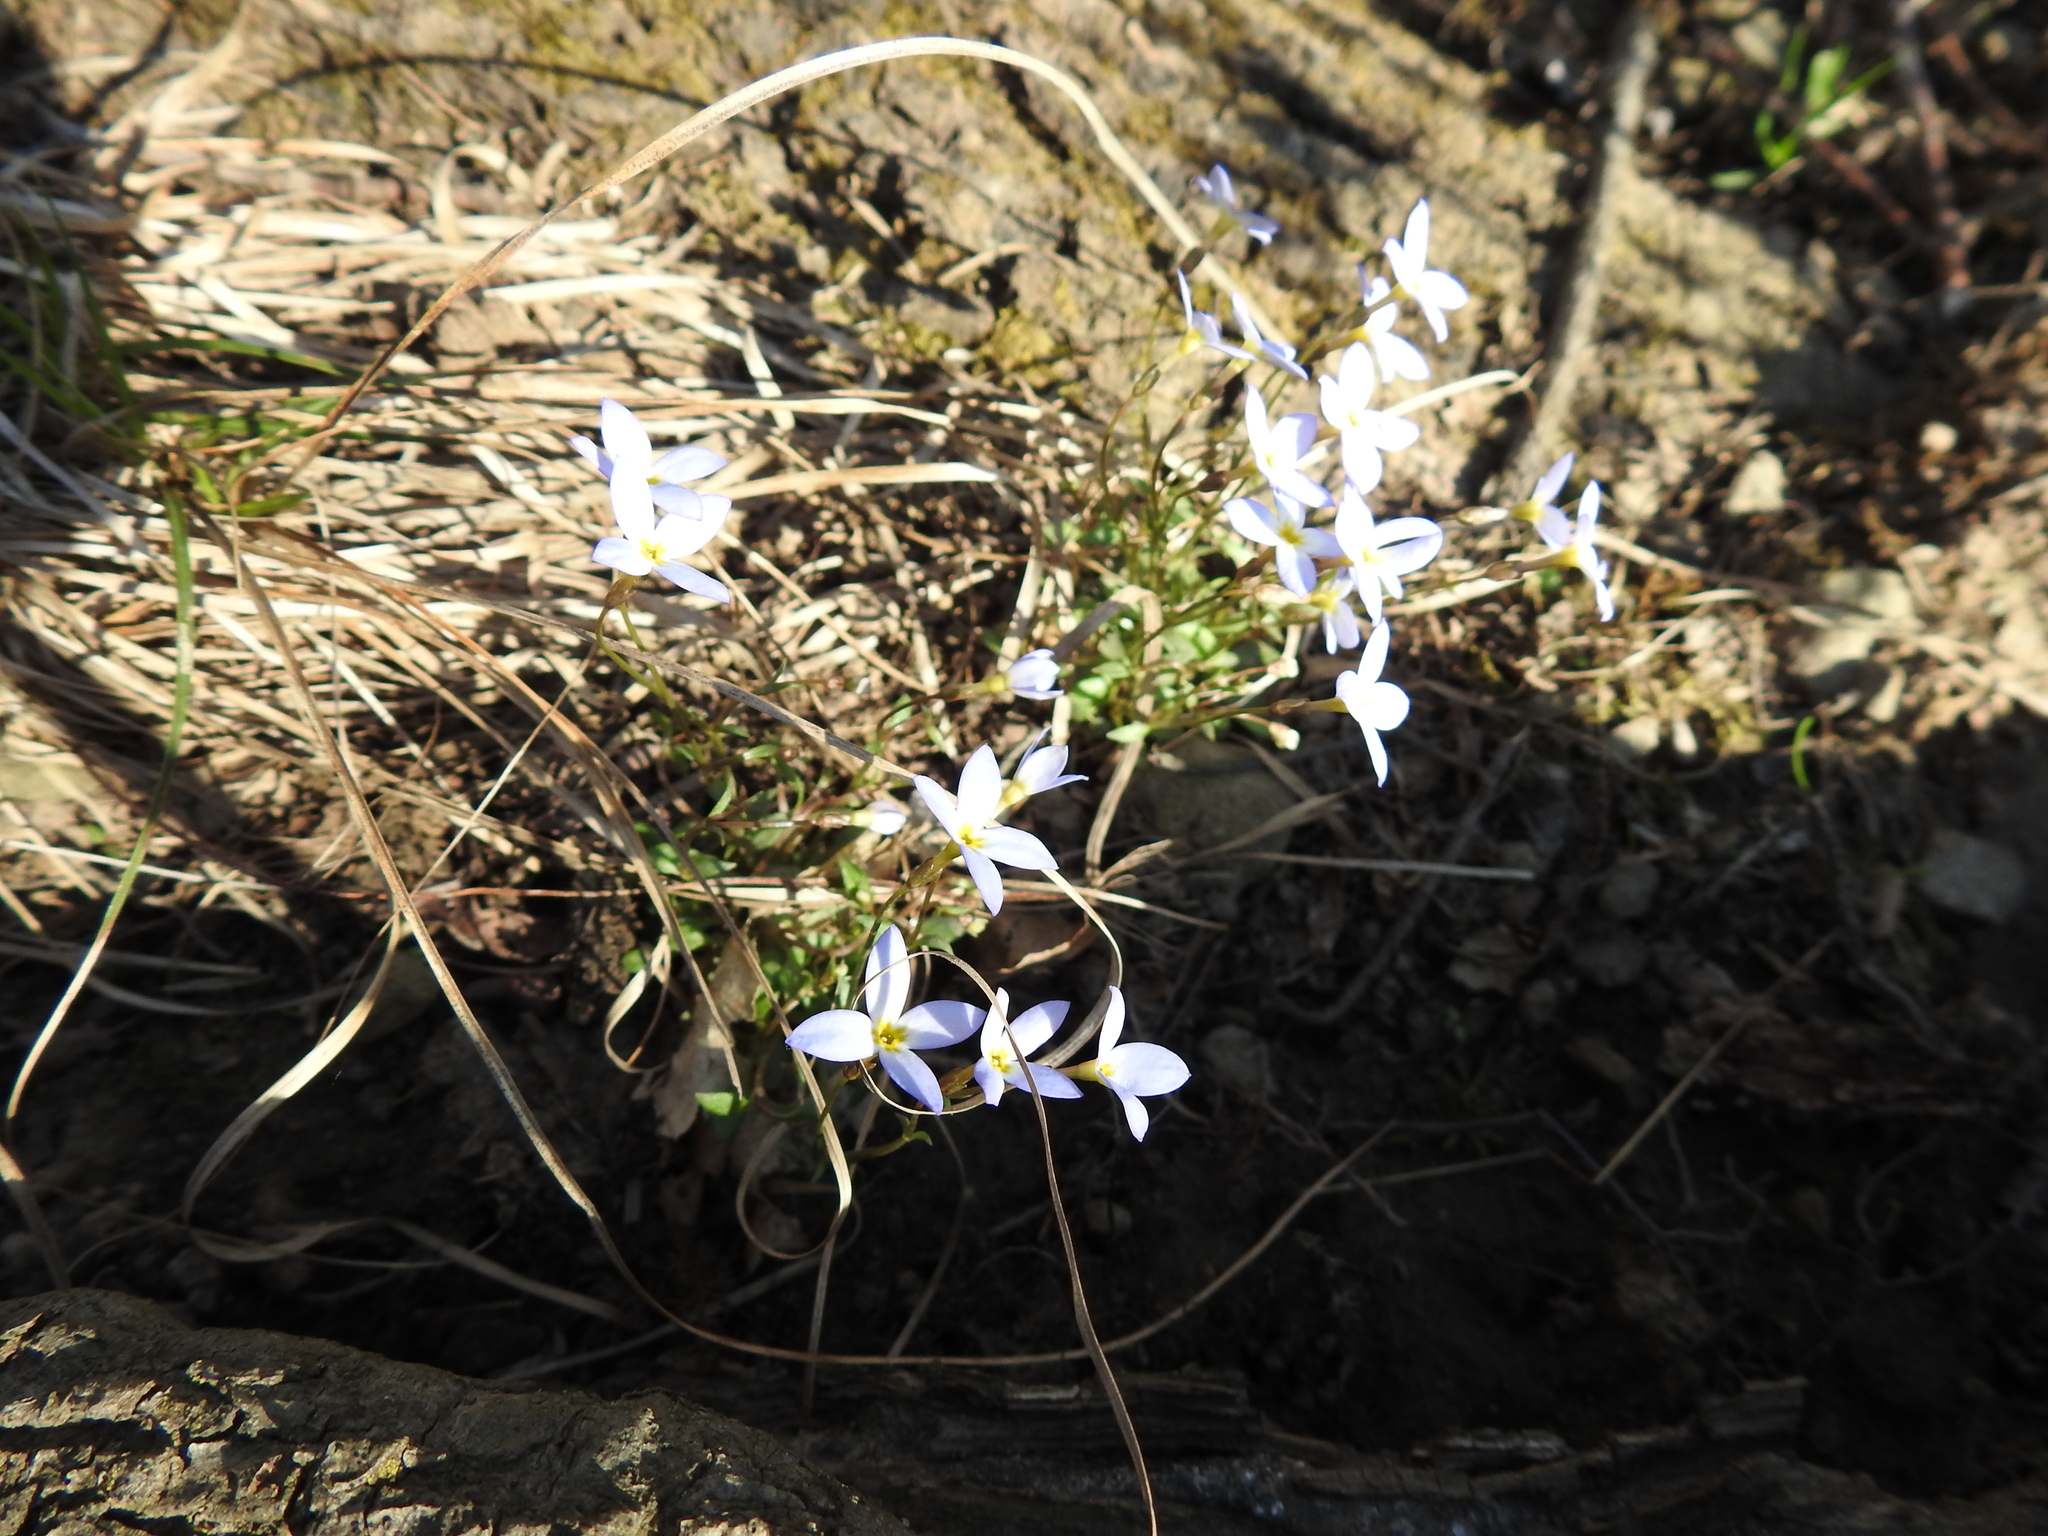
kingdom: Plantae
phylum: Tracheophyta
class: Magnoliopsida
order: Gentianales
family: Rubiaceae
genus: Houstonia
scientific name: Houstonia caerulea
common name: Bluets
